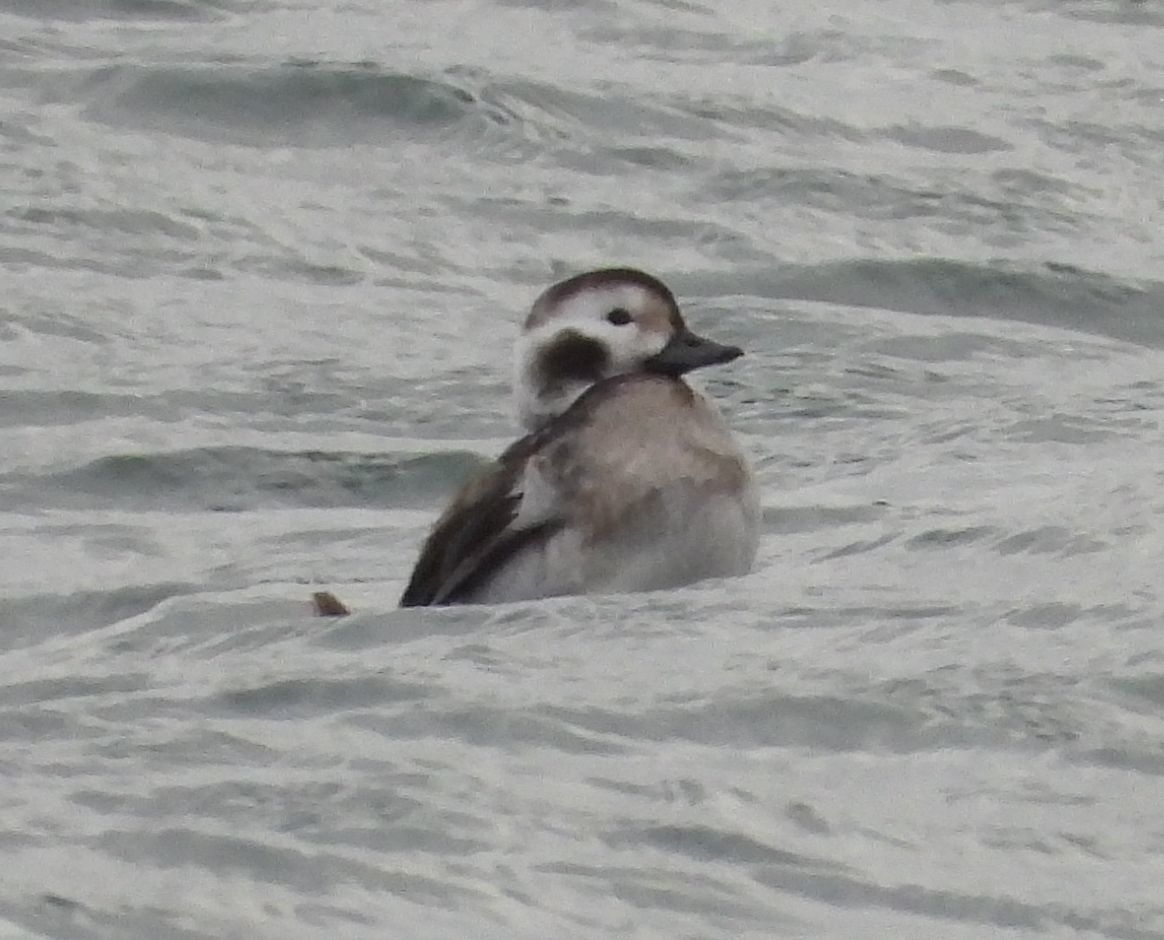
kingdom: Animalia
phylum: Chordata
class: Aves
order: Anseriformes
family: Anatidae
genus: Clangula
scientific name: Clangula hyemalis
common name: Long-tailed duck
